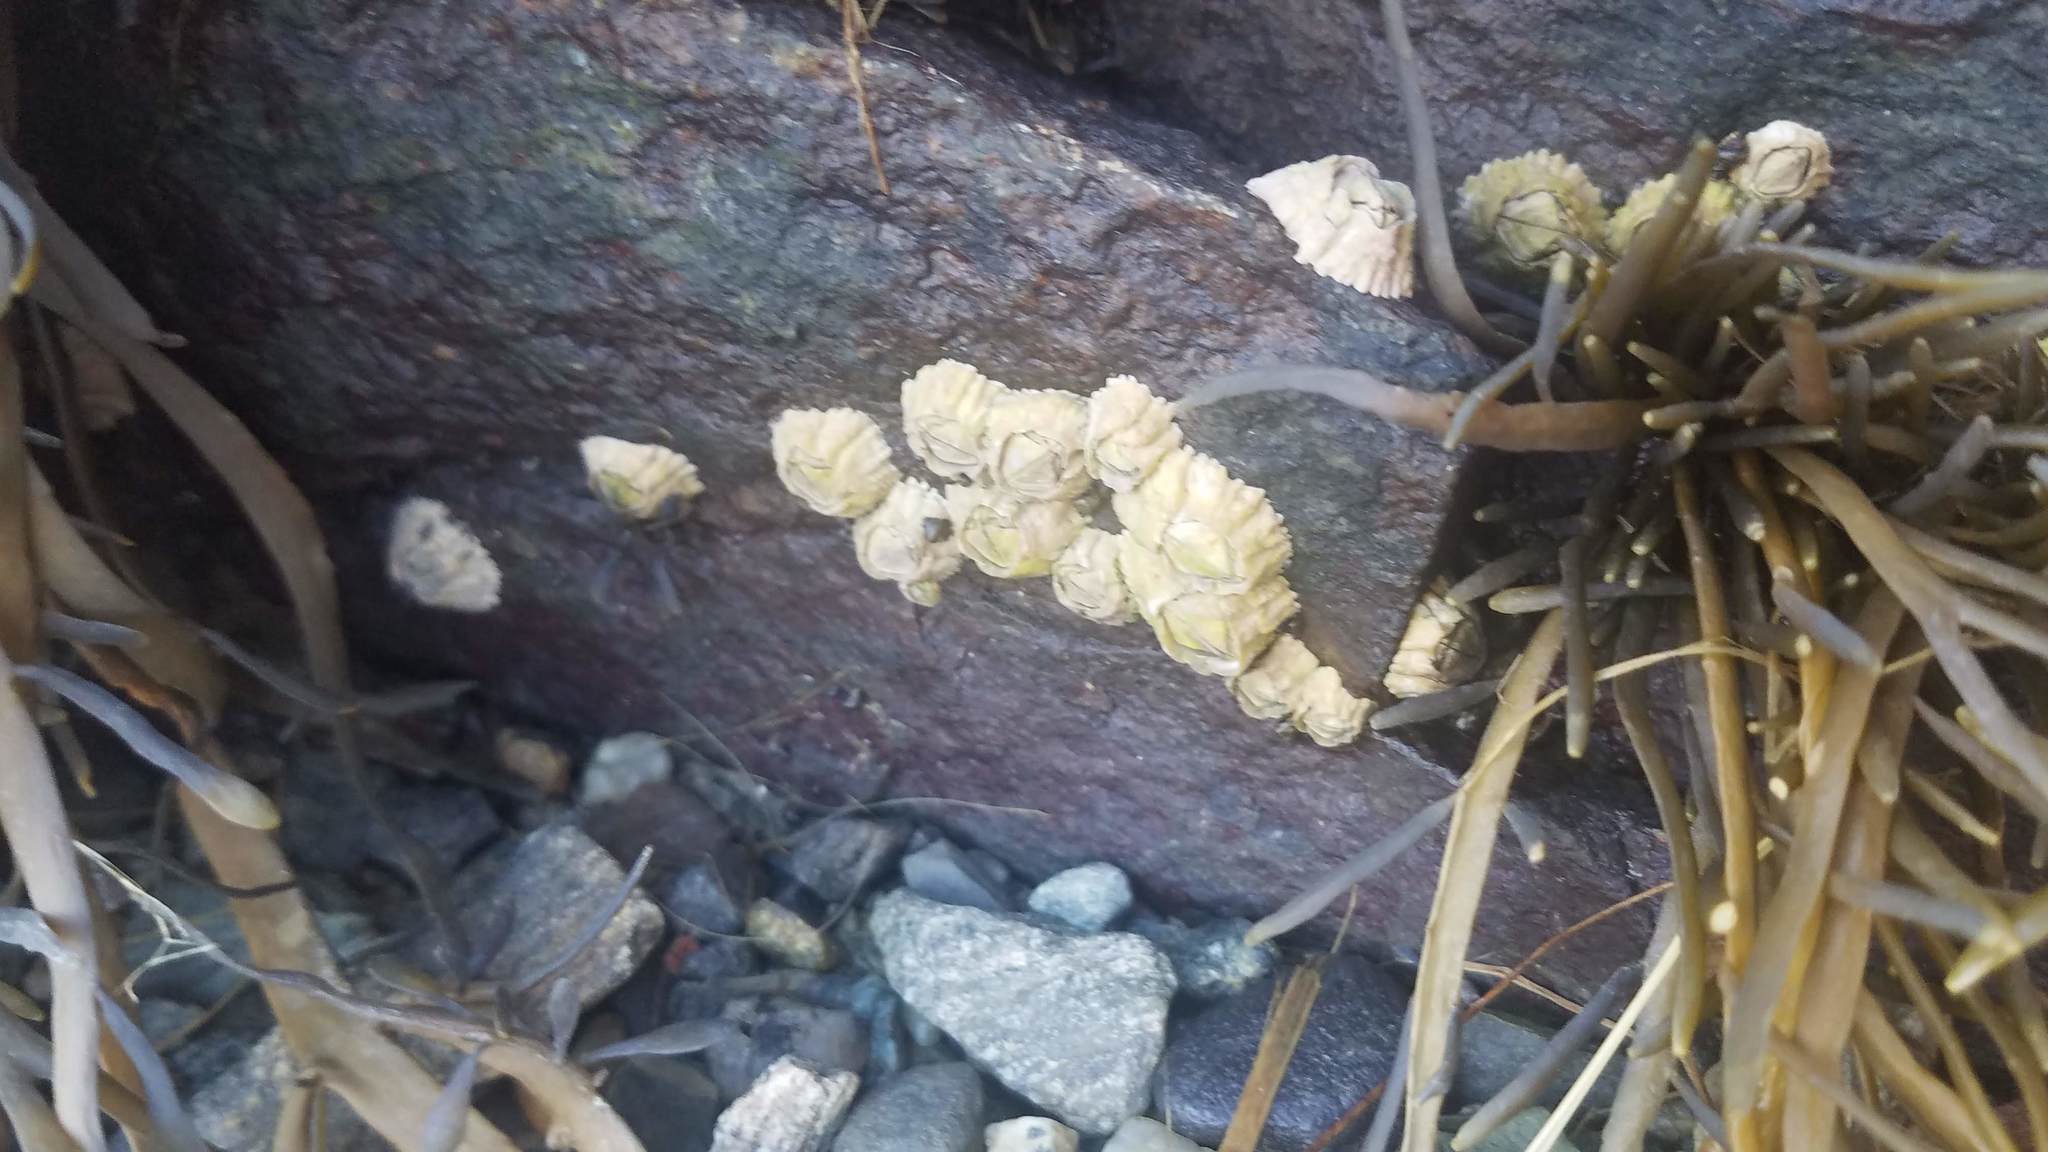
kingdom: Animalia
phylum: Arthropoda
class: Maxillopoda
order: Sessilia
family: Archaeobalanidae
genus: Semibalanus
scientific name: Semibalanus balanoides
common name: Acorn barnacle
